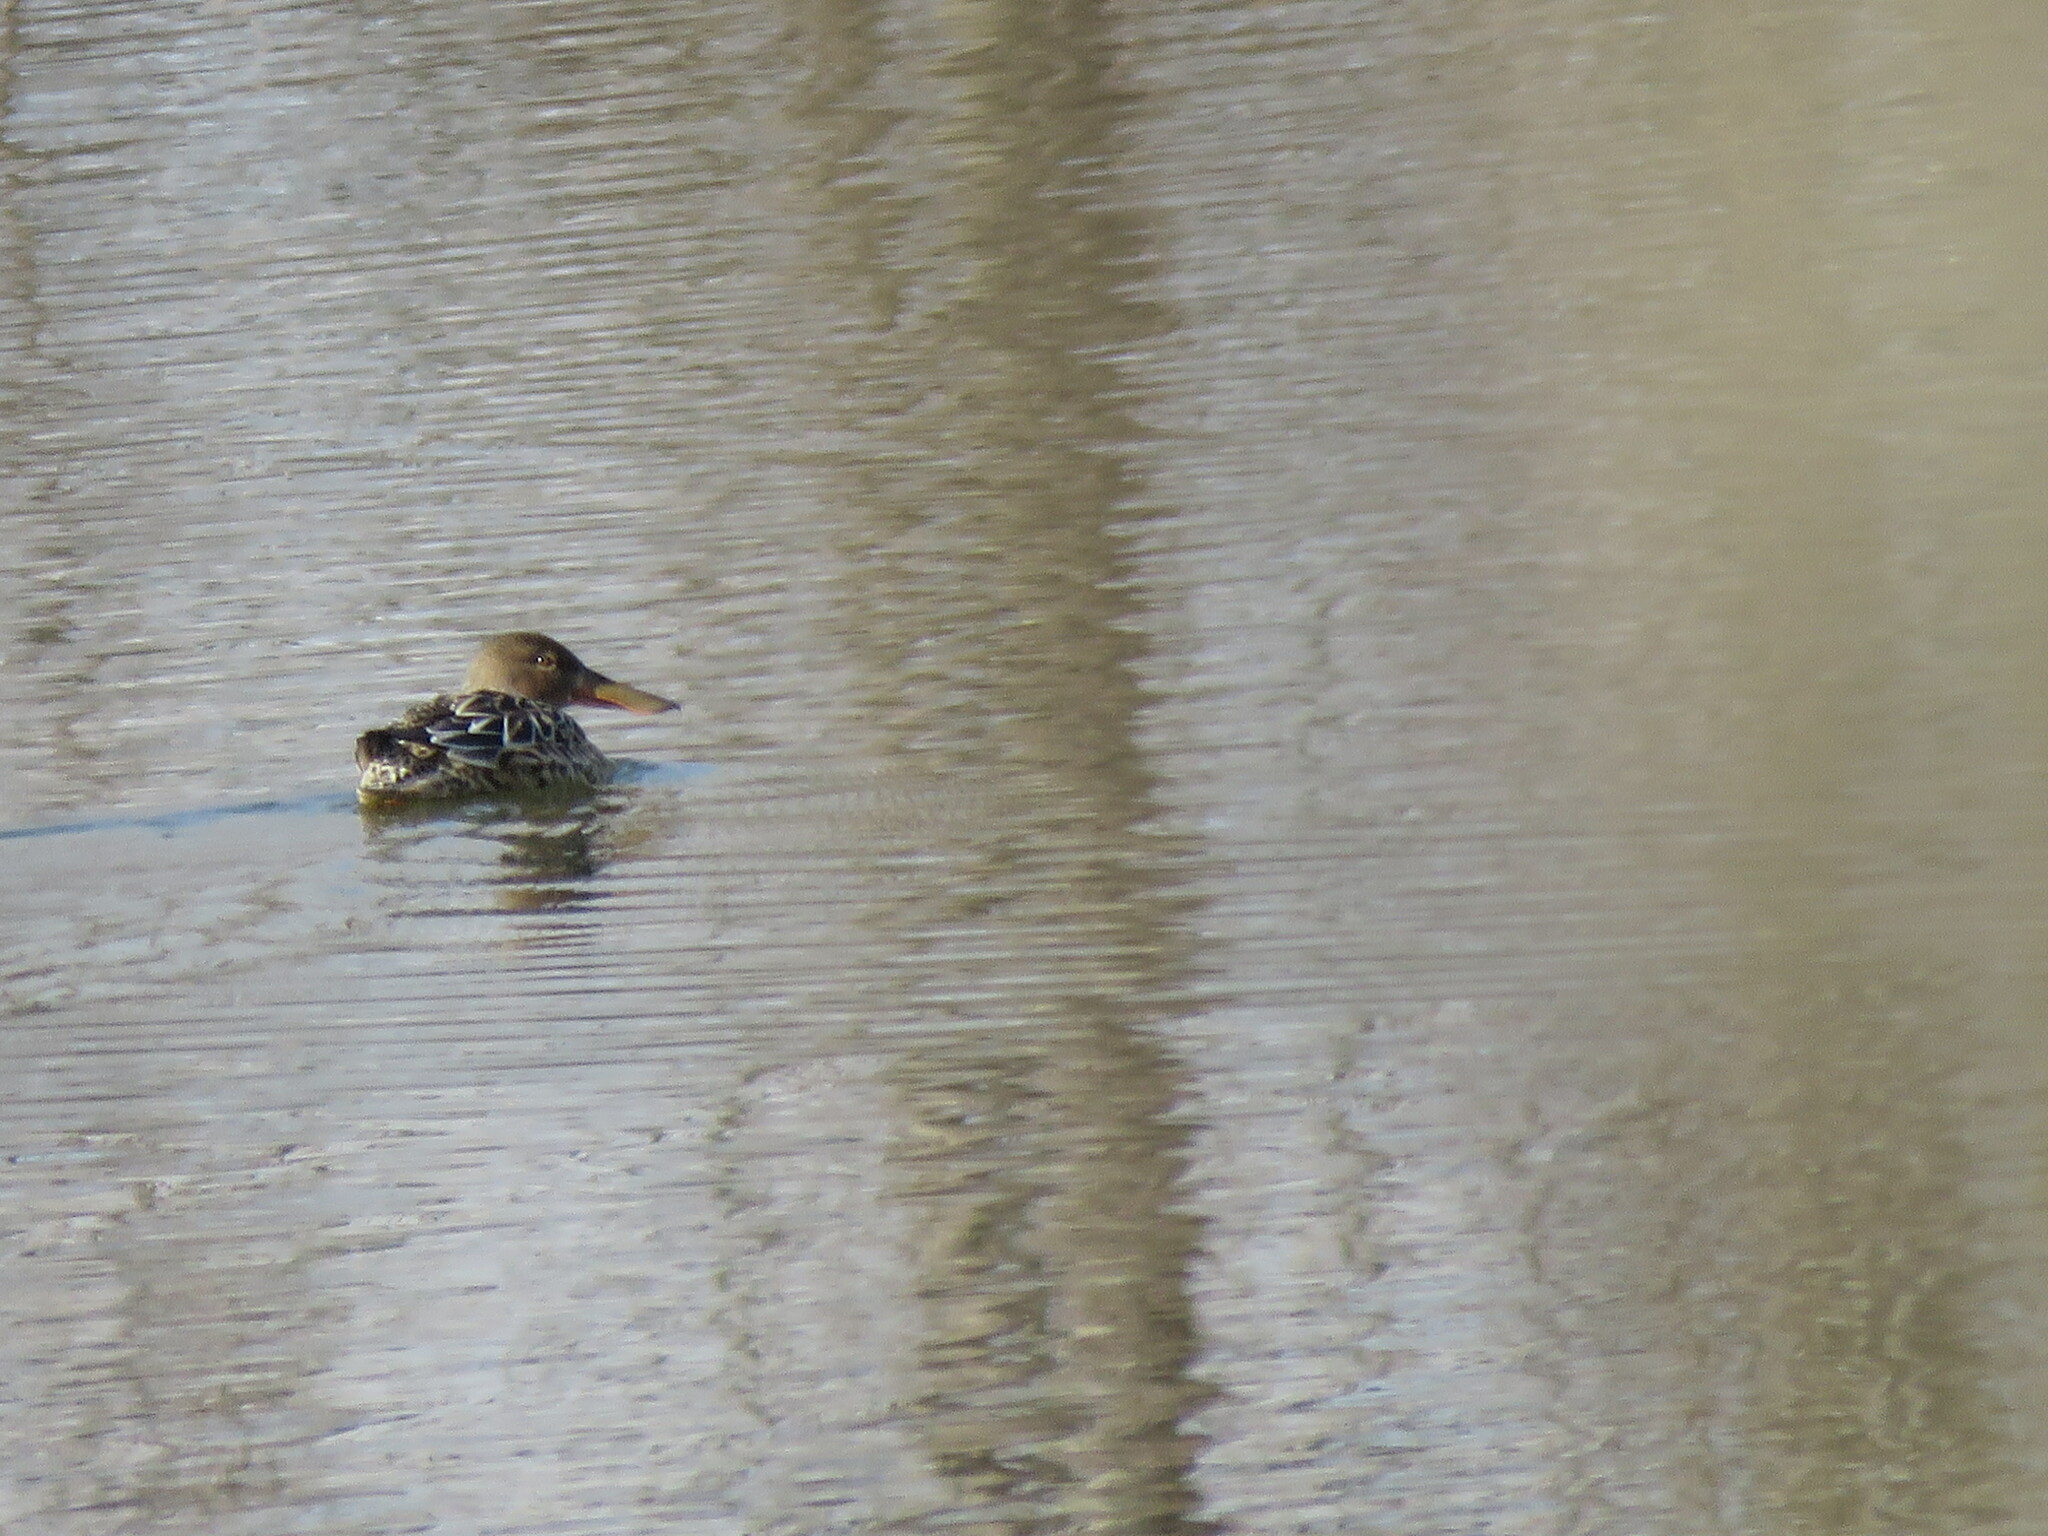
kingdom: Animalia
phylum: Chordata
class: Aves
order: Anseriformes
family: Anatidae
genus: Spatula
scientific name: Spatula clypeata
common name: Northern shoveler
